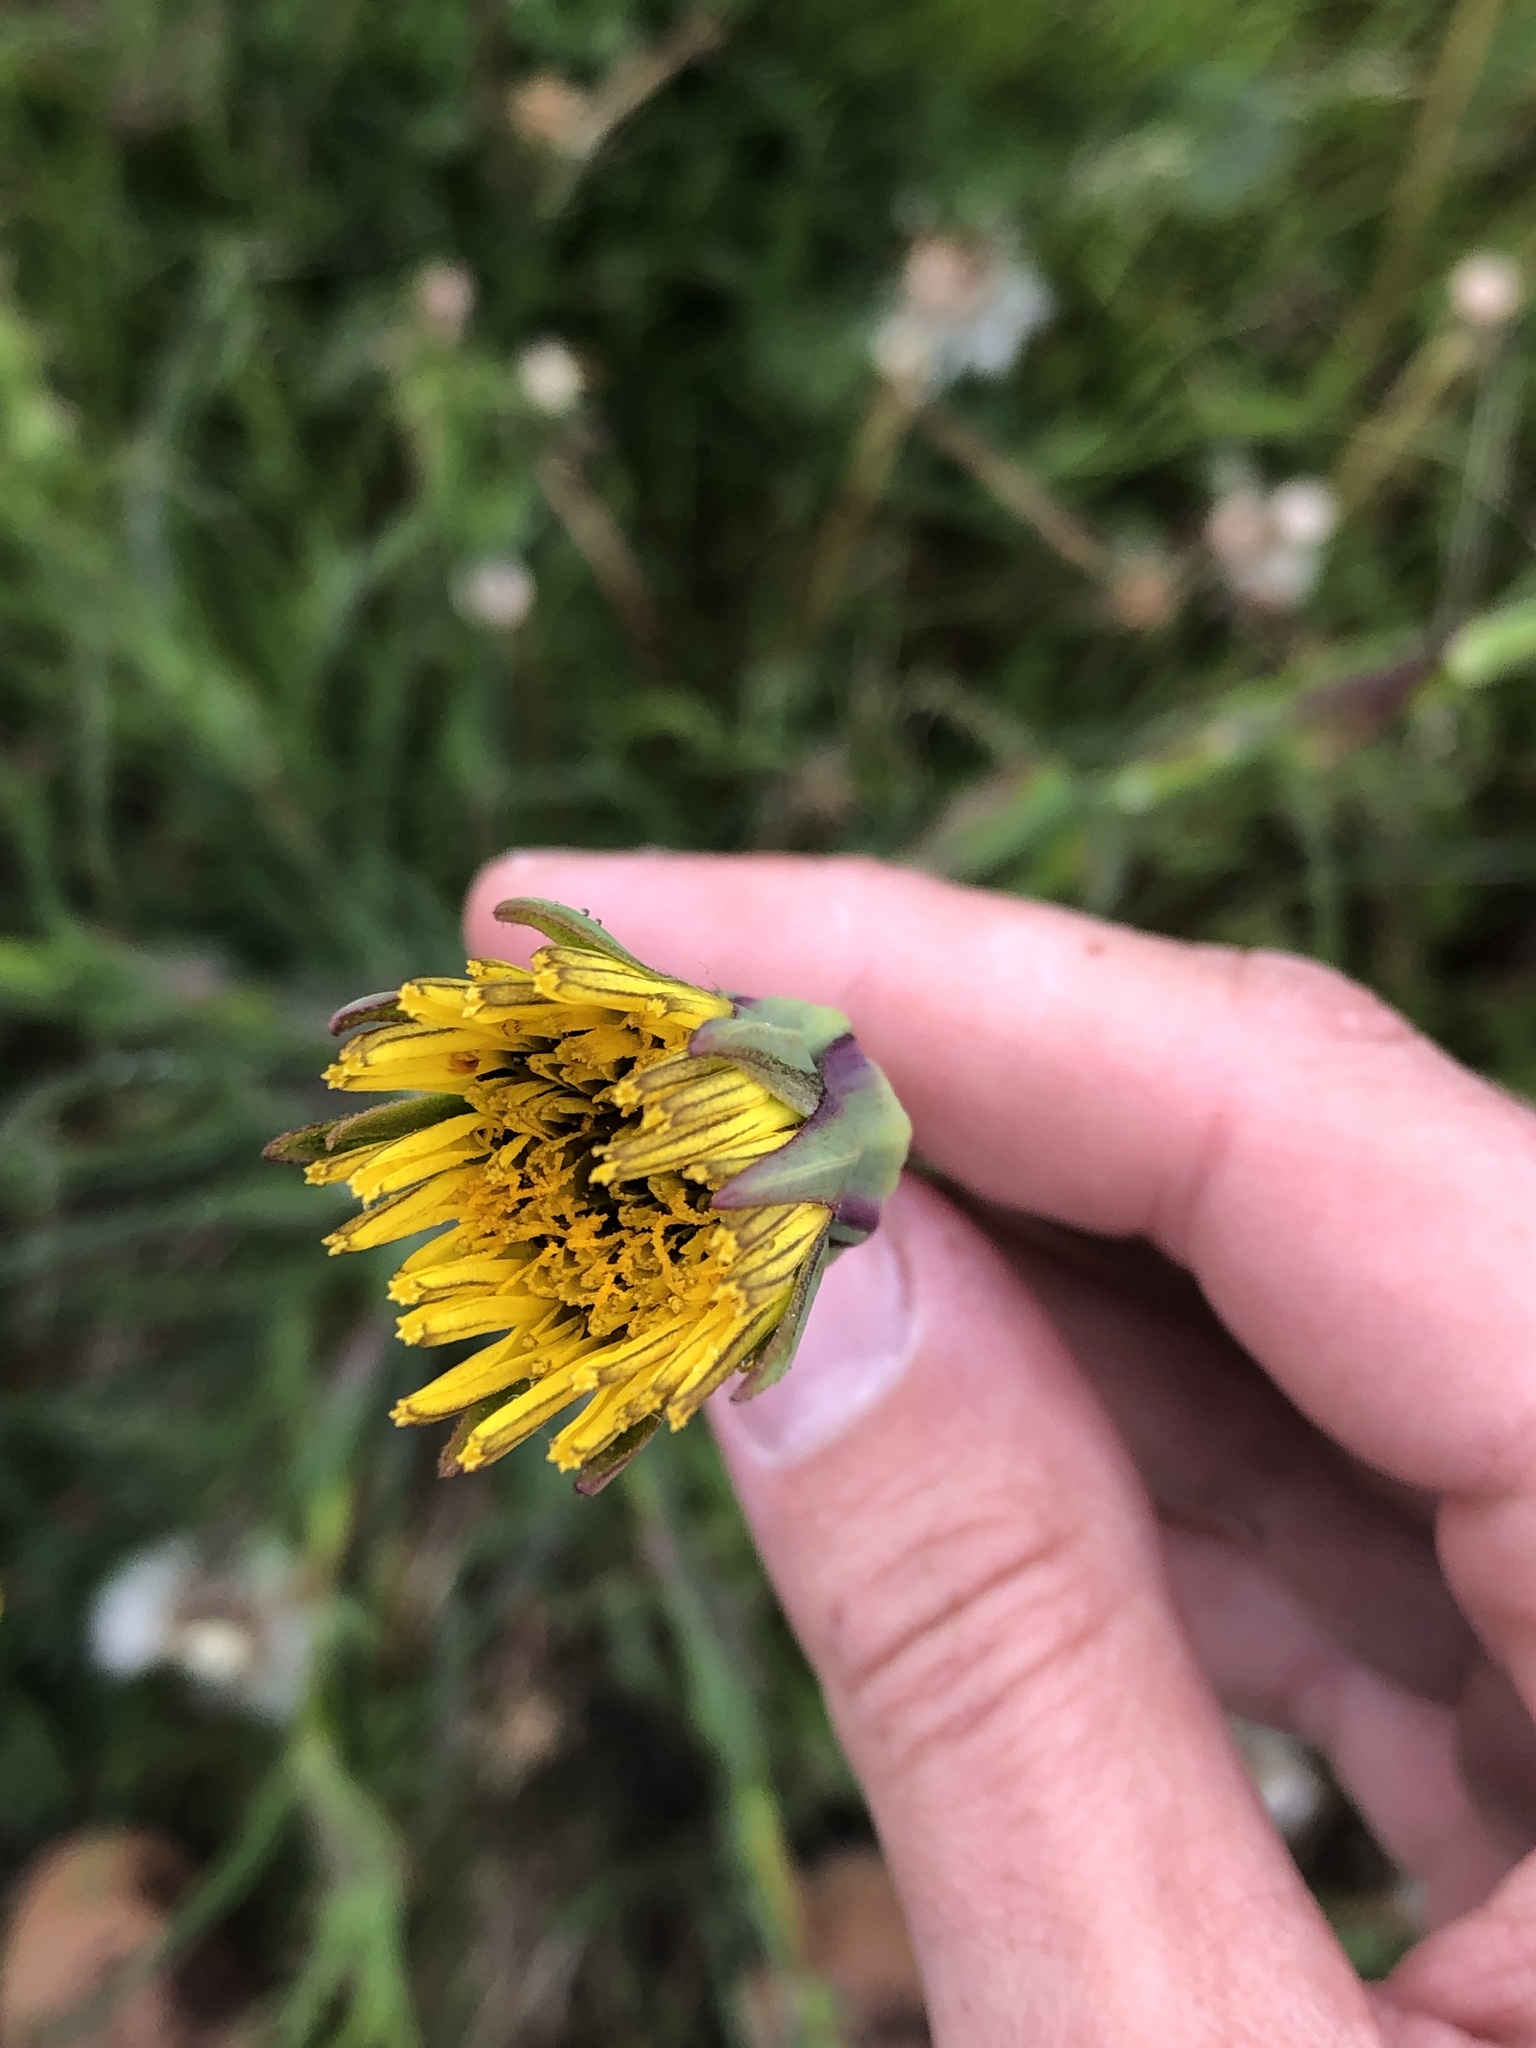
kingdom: Plantae
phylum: Tracheophyta
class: Magnoliopsida
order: Asterales
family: Asteraceae
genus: Tragopogon
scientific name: Tragopogon pratensis
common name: Goat's-beard
